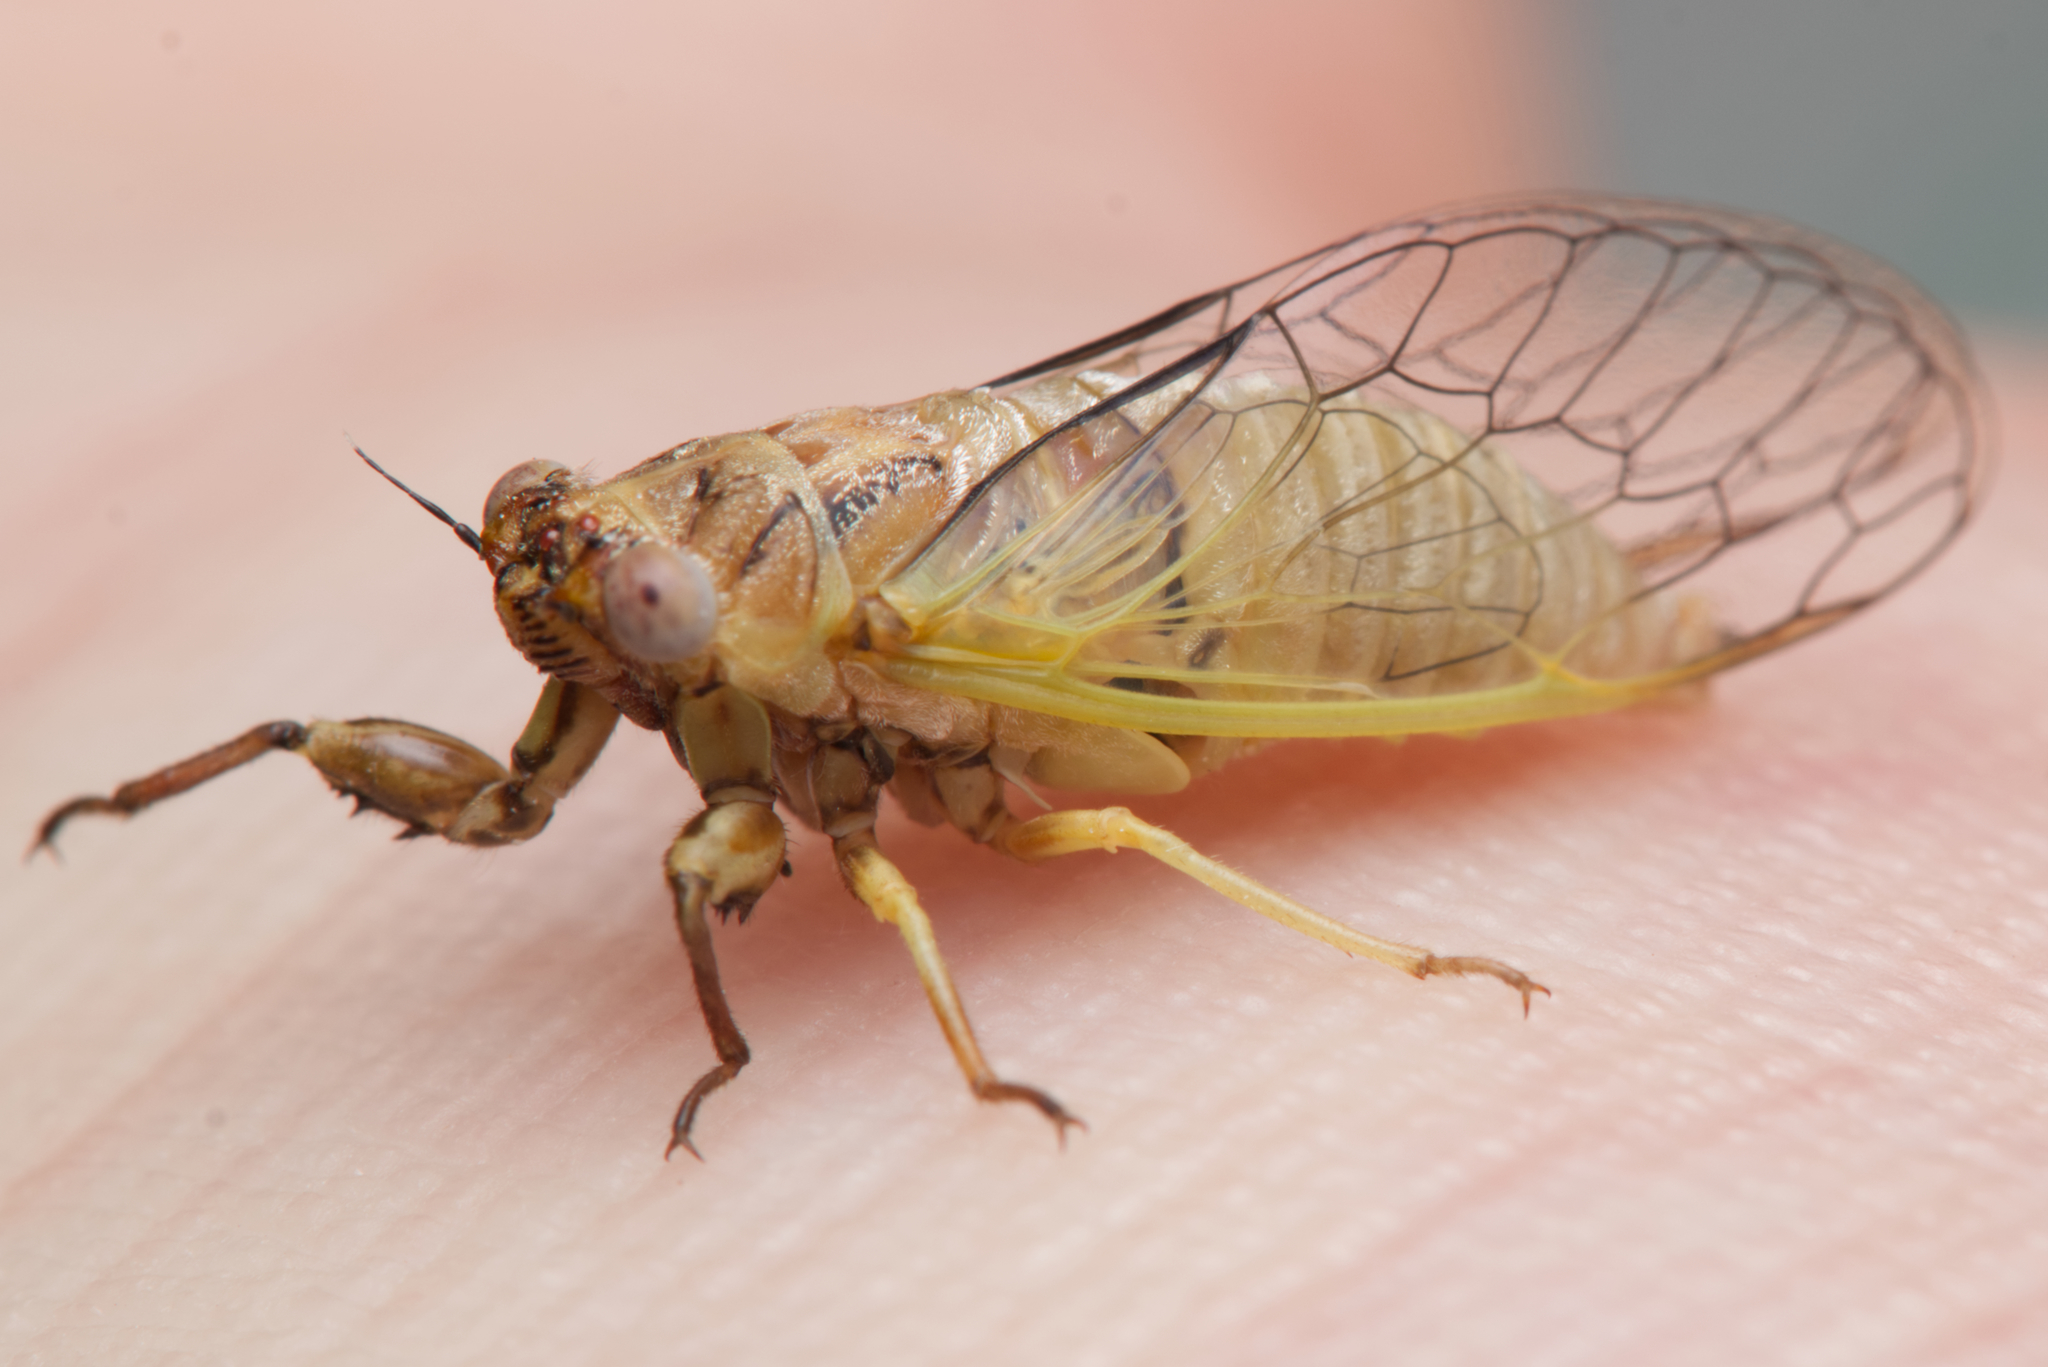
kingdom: Animalia
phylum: Arthropoda
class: Insecta
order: Hemiptera
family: Cicadidae
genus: Urabunana
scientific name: Urabunana sericeivitta
